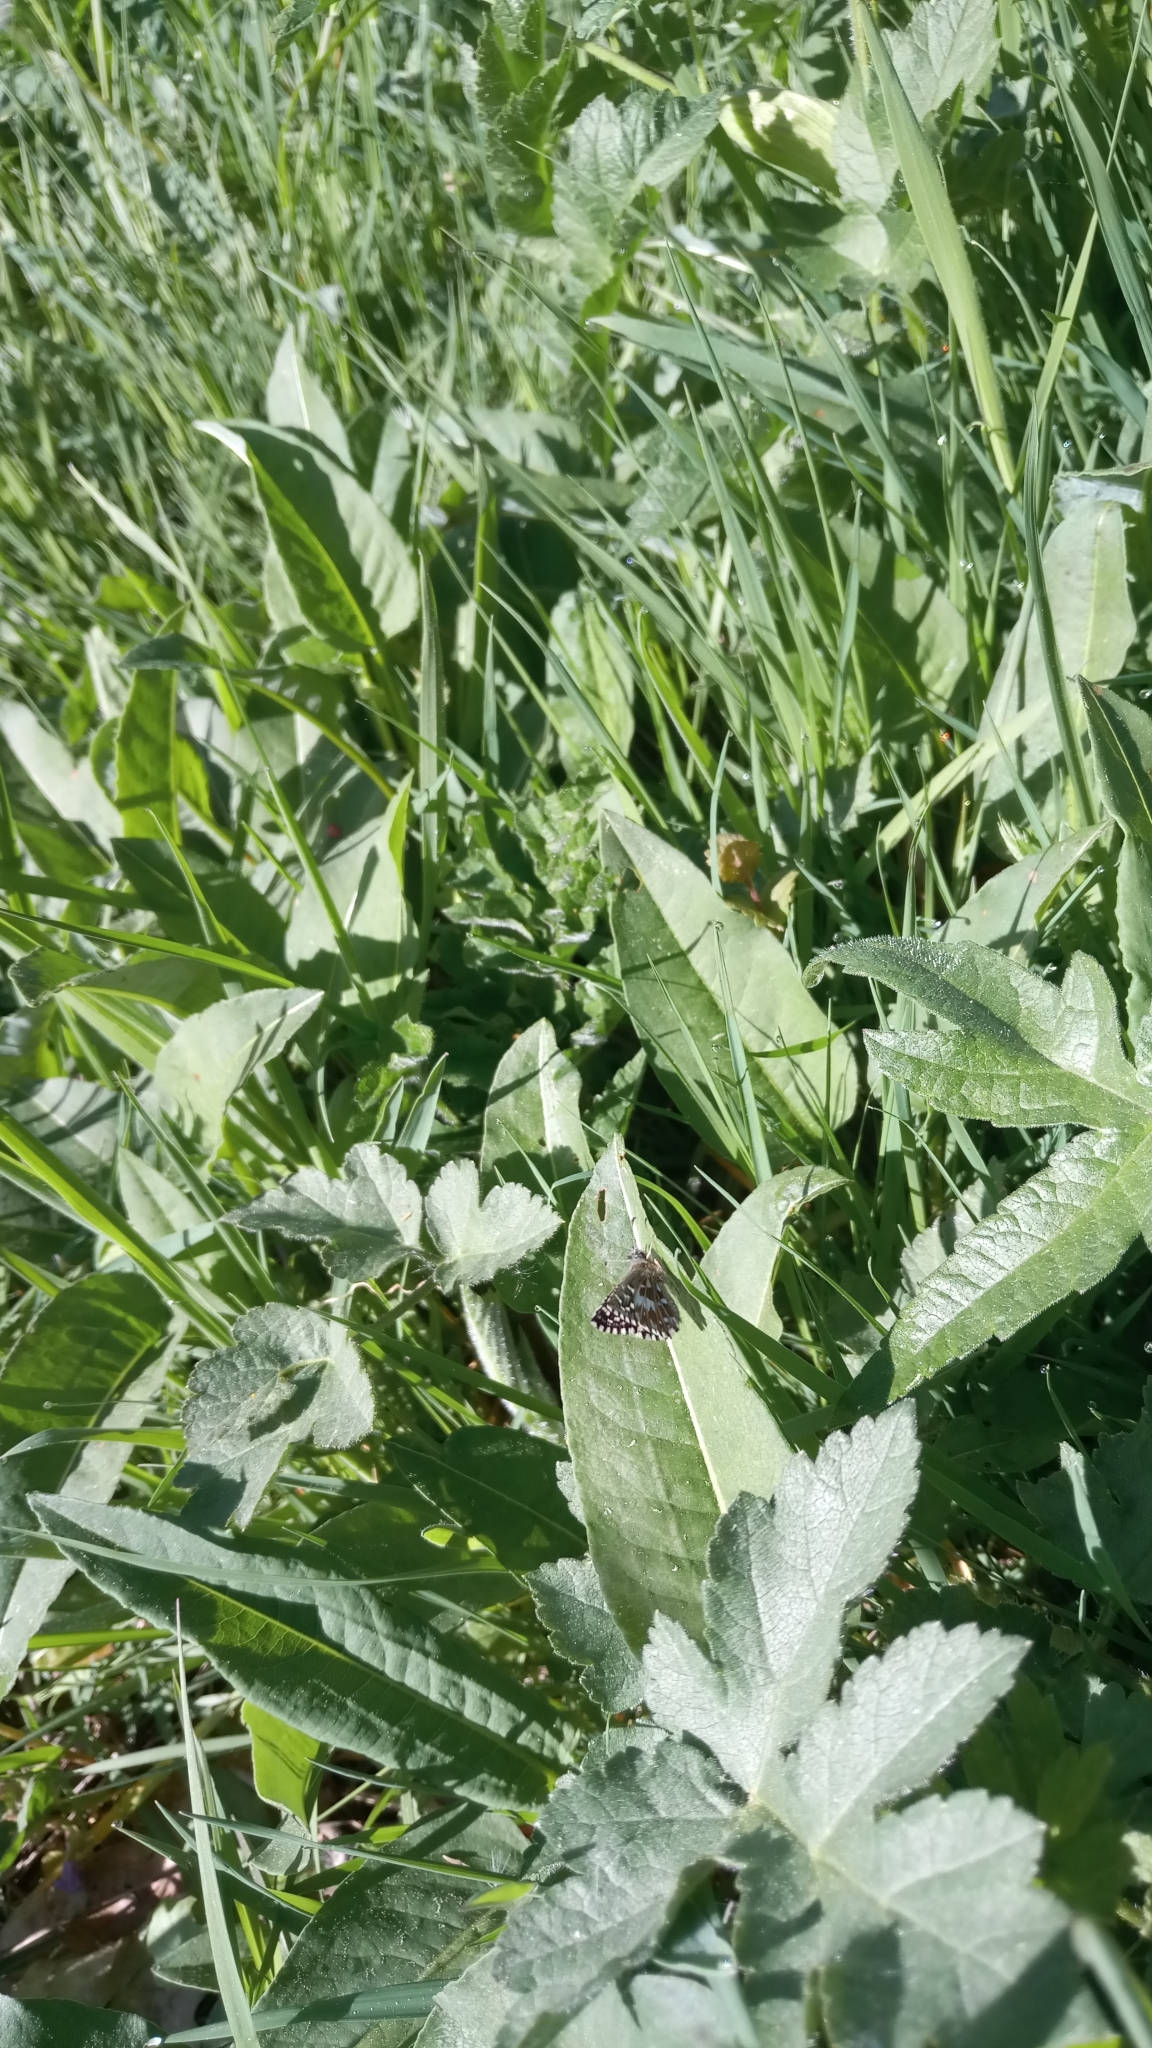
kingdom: Animalia
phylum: Arthropoda
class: Insecta
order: Lepidoptera
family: Hesperiidae
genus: Pyrgus
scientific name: Pyrgus malvae
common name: Grizzled skipper
